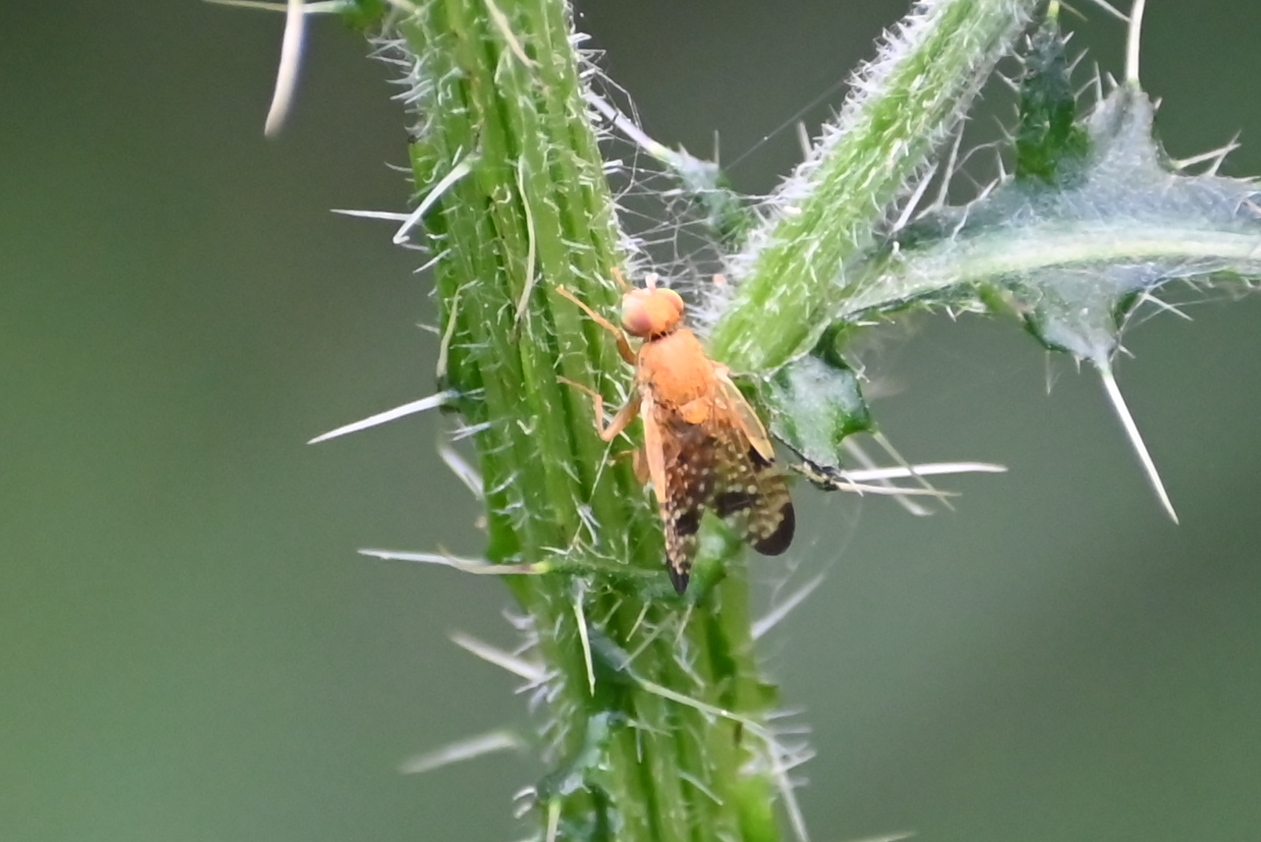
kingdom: Animalia
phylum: Arthropoda
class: Insecta
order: Diptera
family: Tephritidae
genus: Xyphosia
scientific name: Xyphosia miliaria
